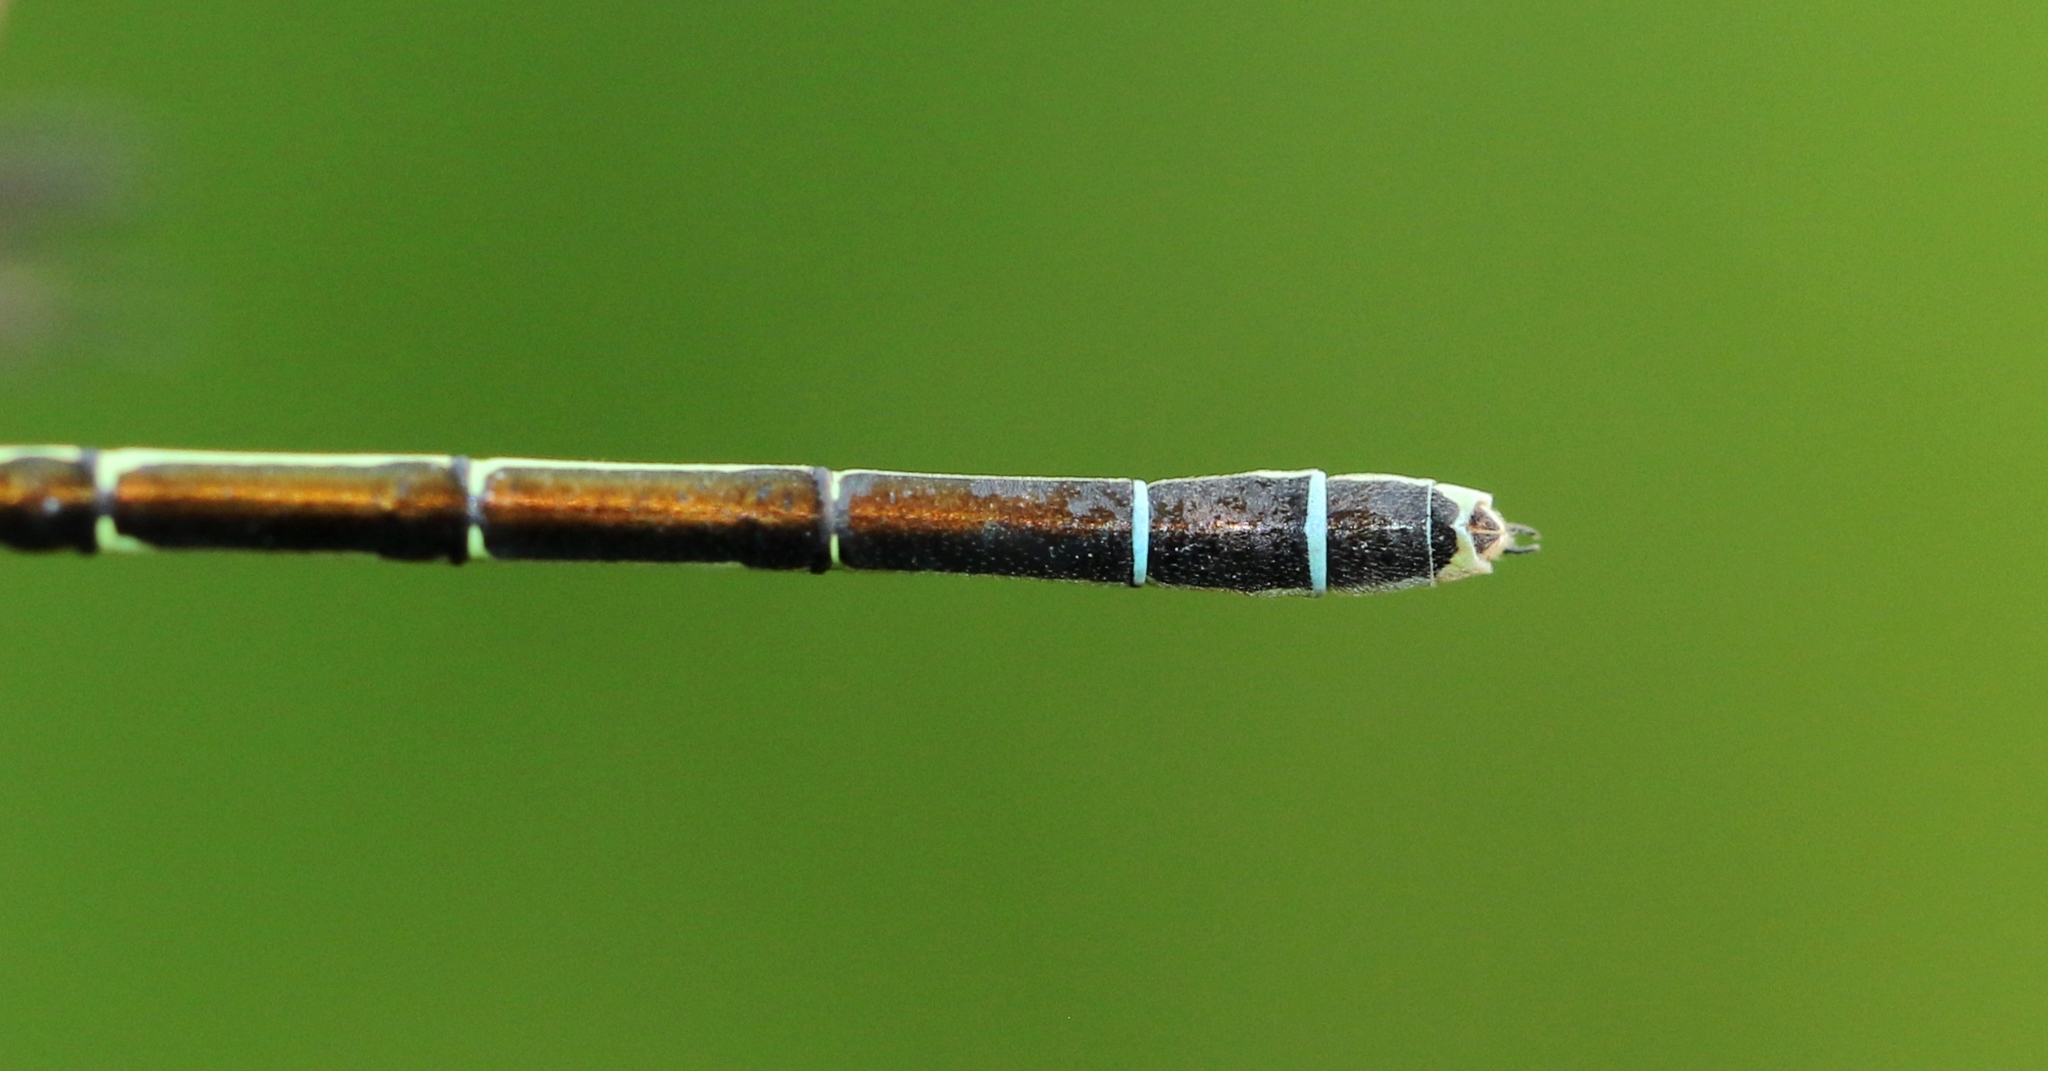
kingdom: Animalia
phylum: Arthropoda
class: Insecta
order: Odonata
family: Coenagrionidae
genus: Coenagrion
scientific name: Coenagrion resolutum
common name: Taiga bluet
